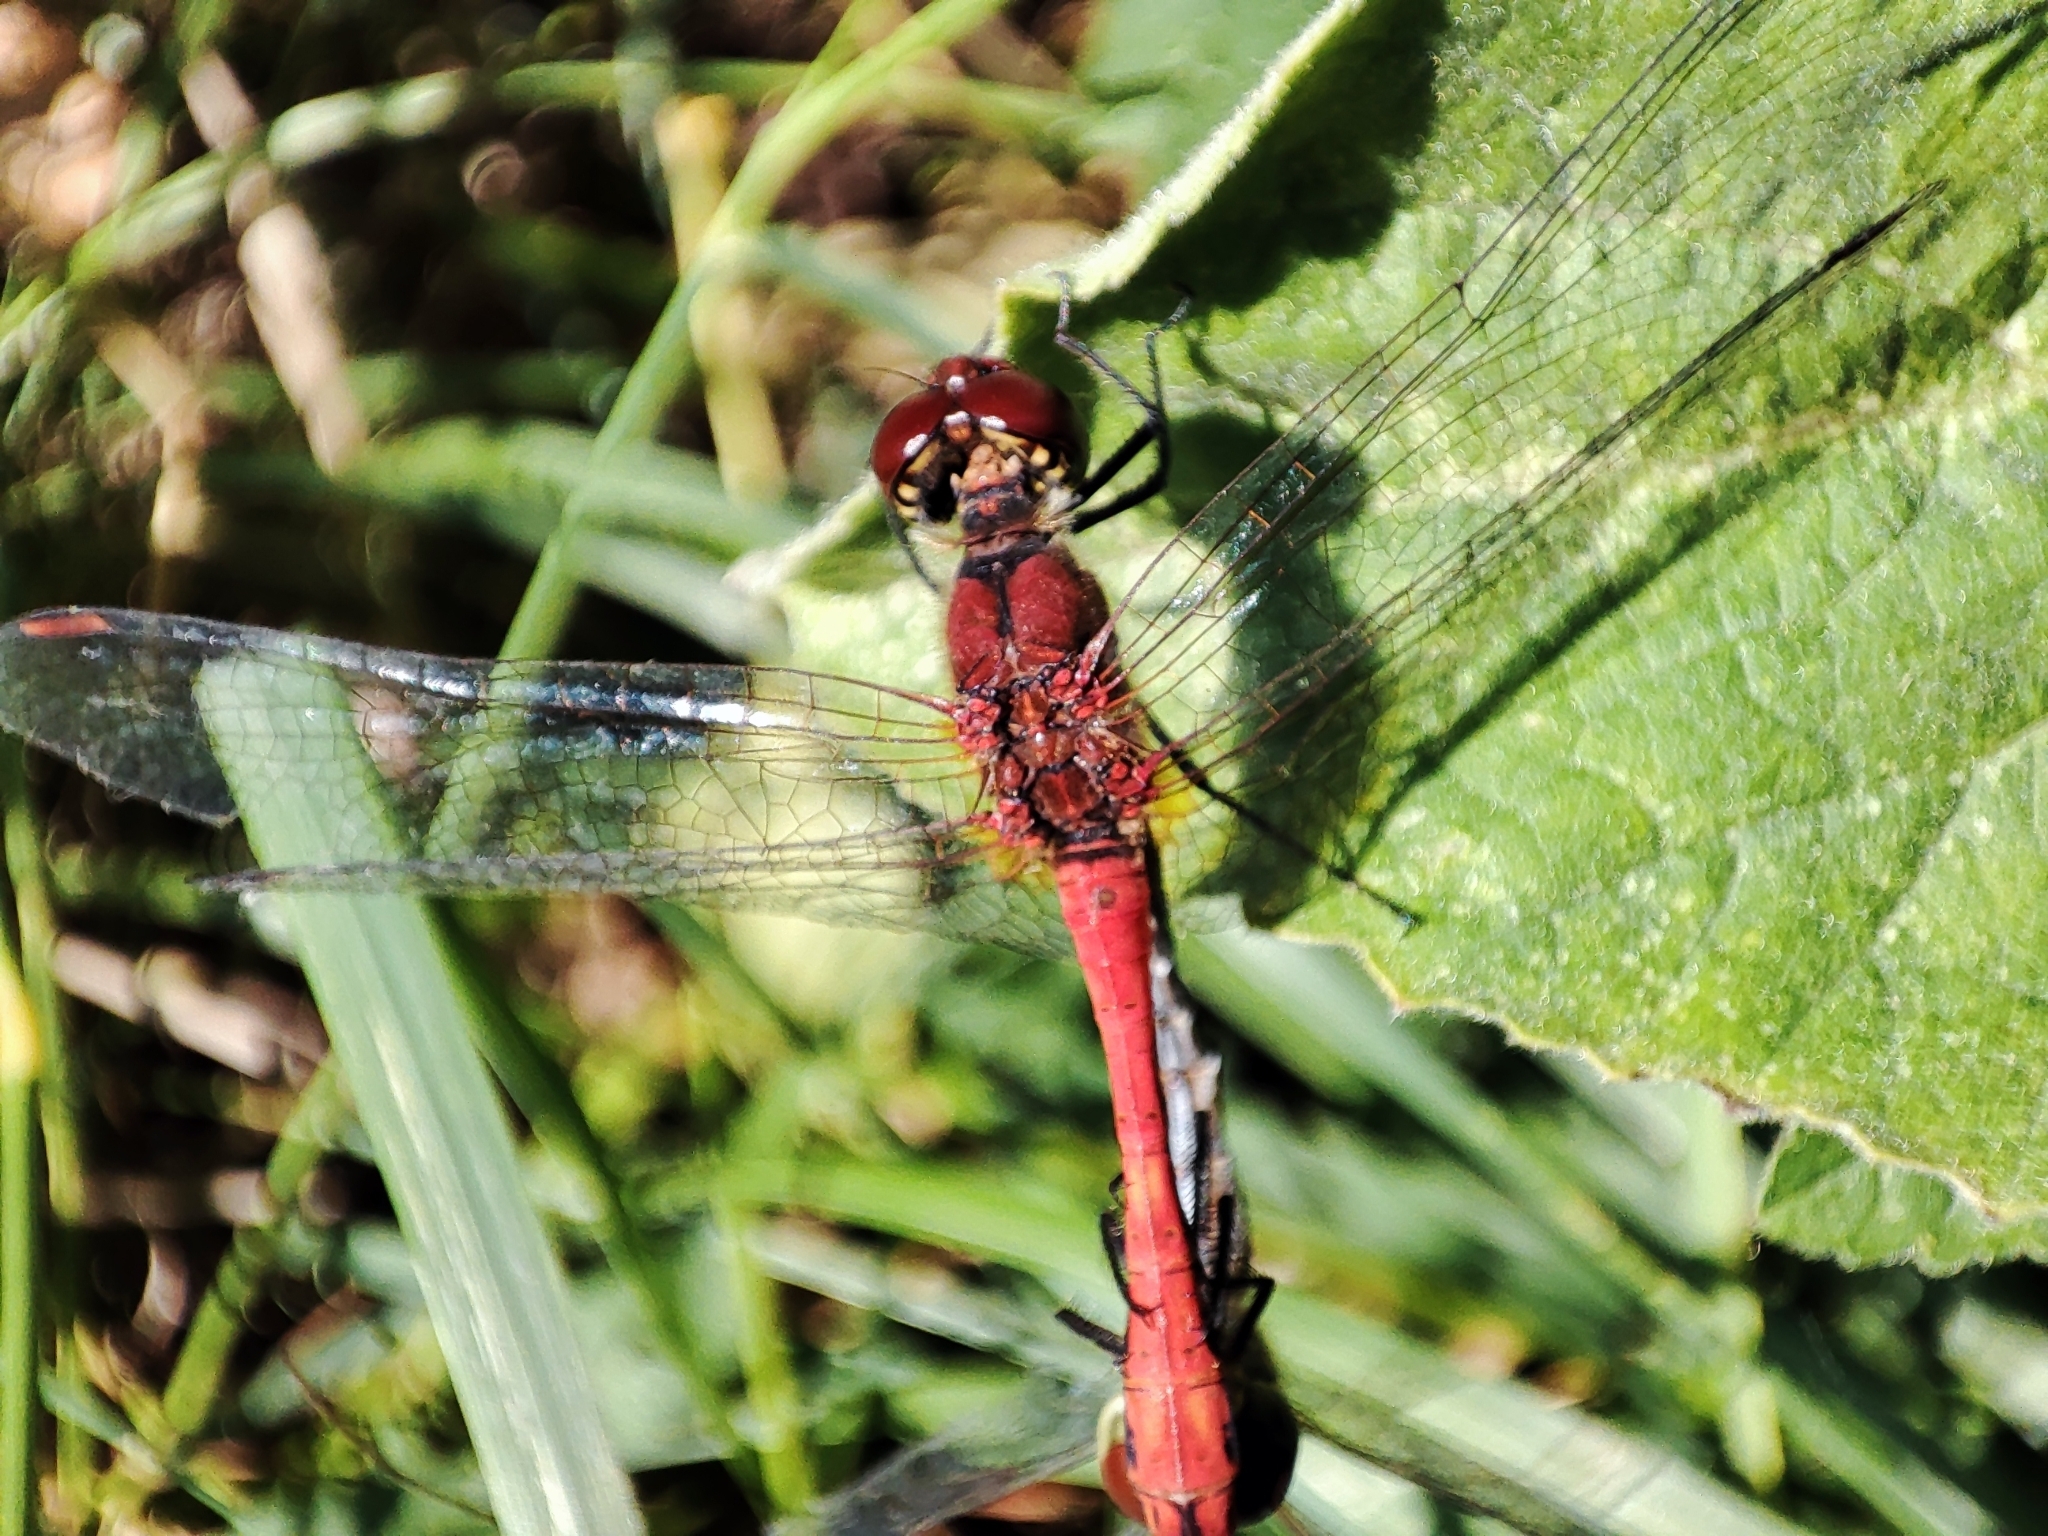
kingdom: Animalia
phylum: Arthropoda
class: Insecta
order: Odonata
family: Libellulidae
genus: Sympetrum
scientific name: Sympetrum sanguineum
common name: Ruddy darter
